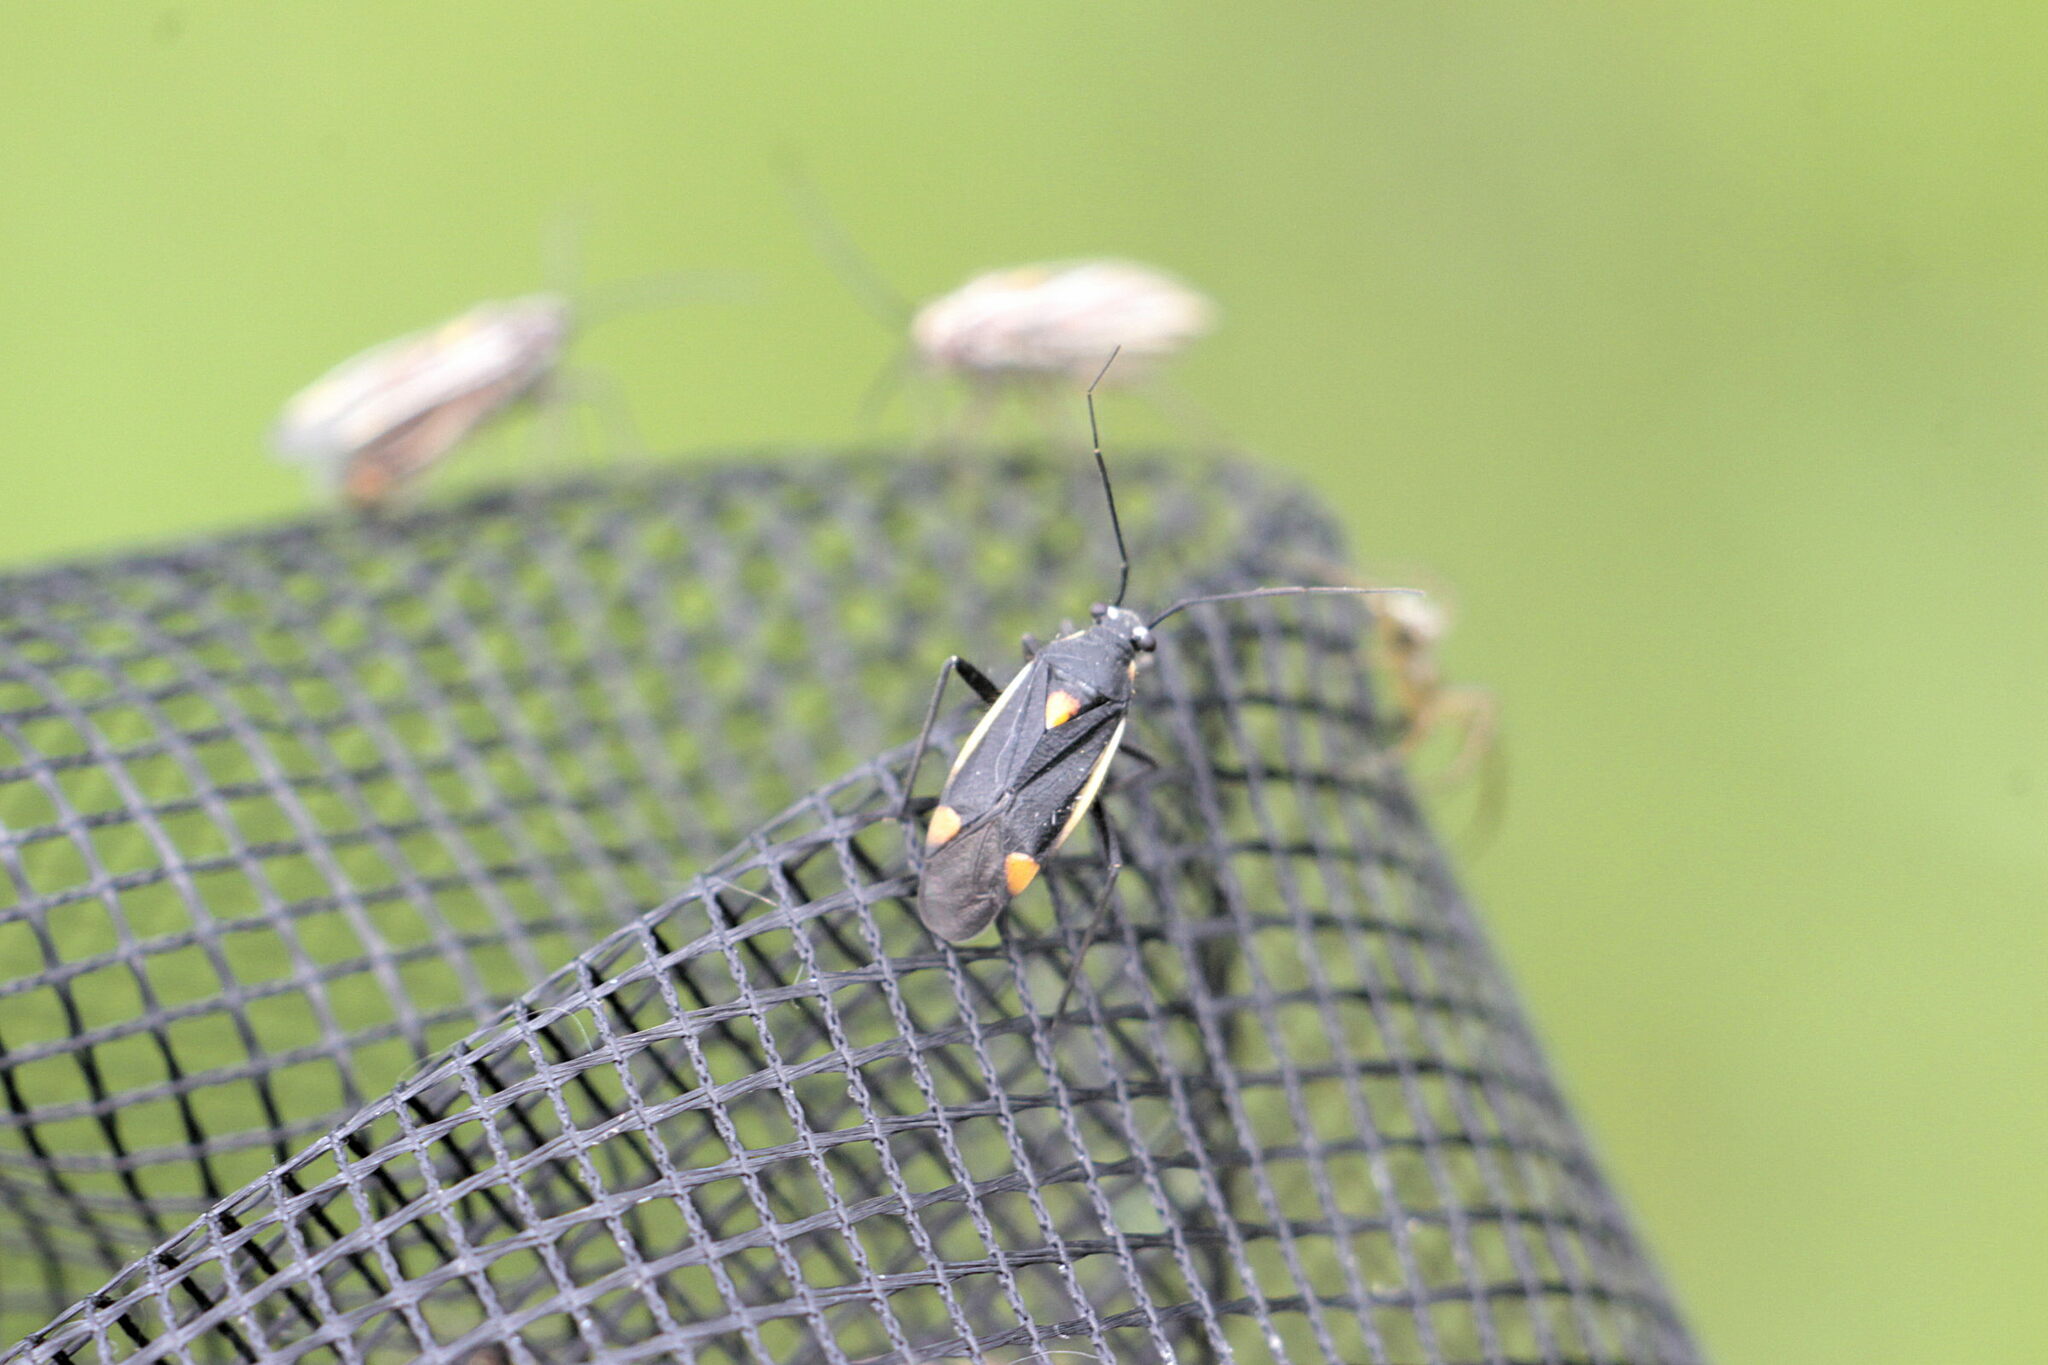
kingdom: Animalia
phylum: Arthropoda
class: Insecta
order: Hemiptera
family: Miridae
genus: Capsodes
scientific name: Capsodes gothicus
